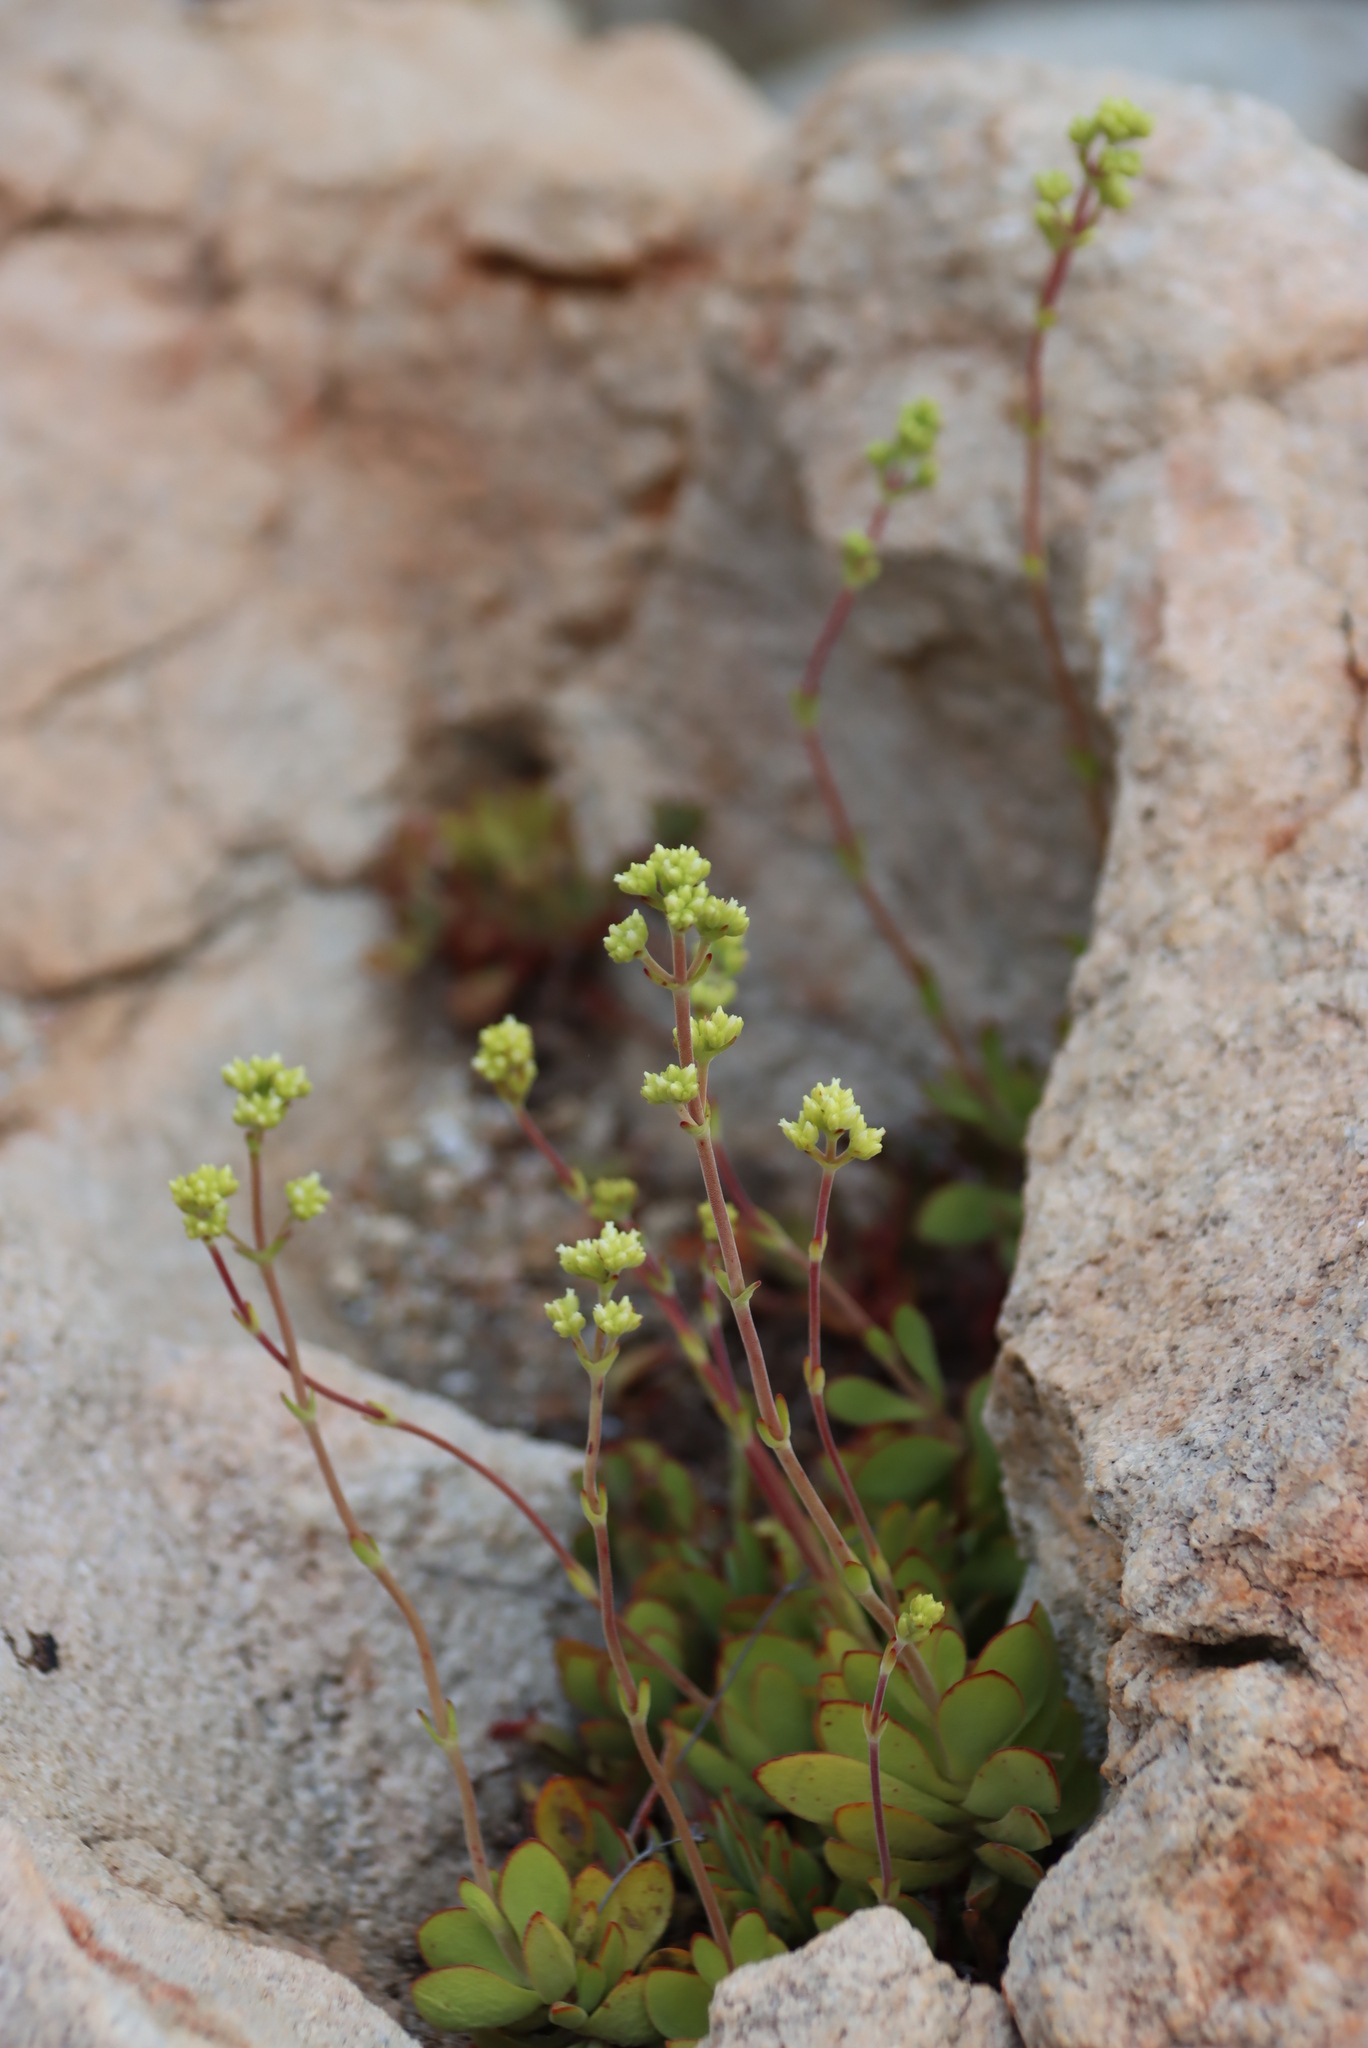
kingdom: Plantae
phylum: Tracheophyta
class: Magnoliopsida
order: Saxifragales
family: Crassulaceae
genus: Crassula
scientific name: Crassula atropurpurea
